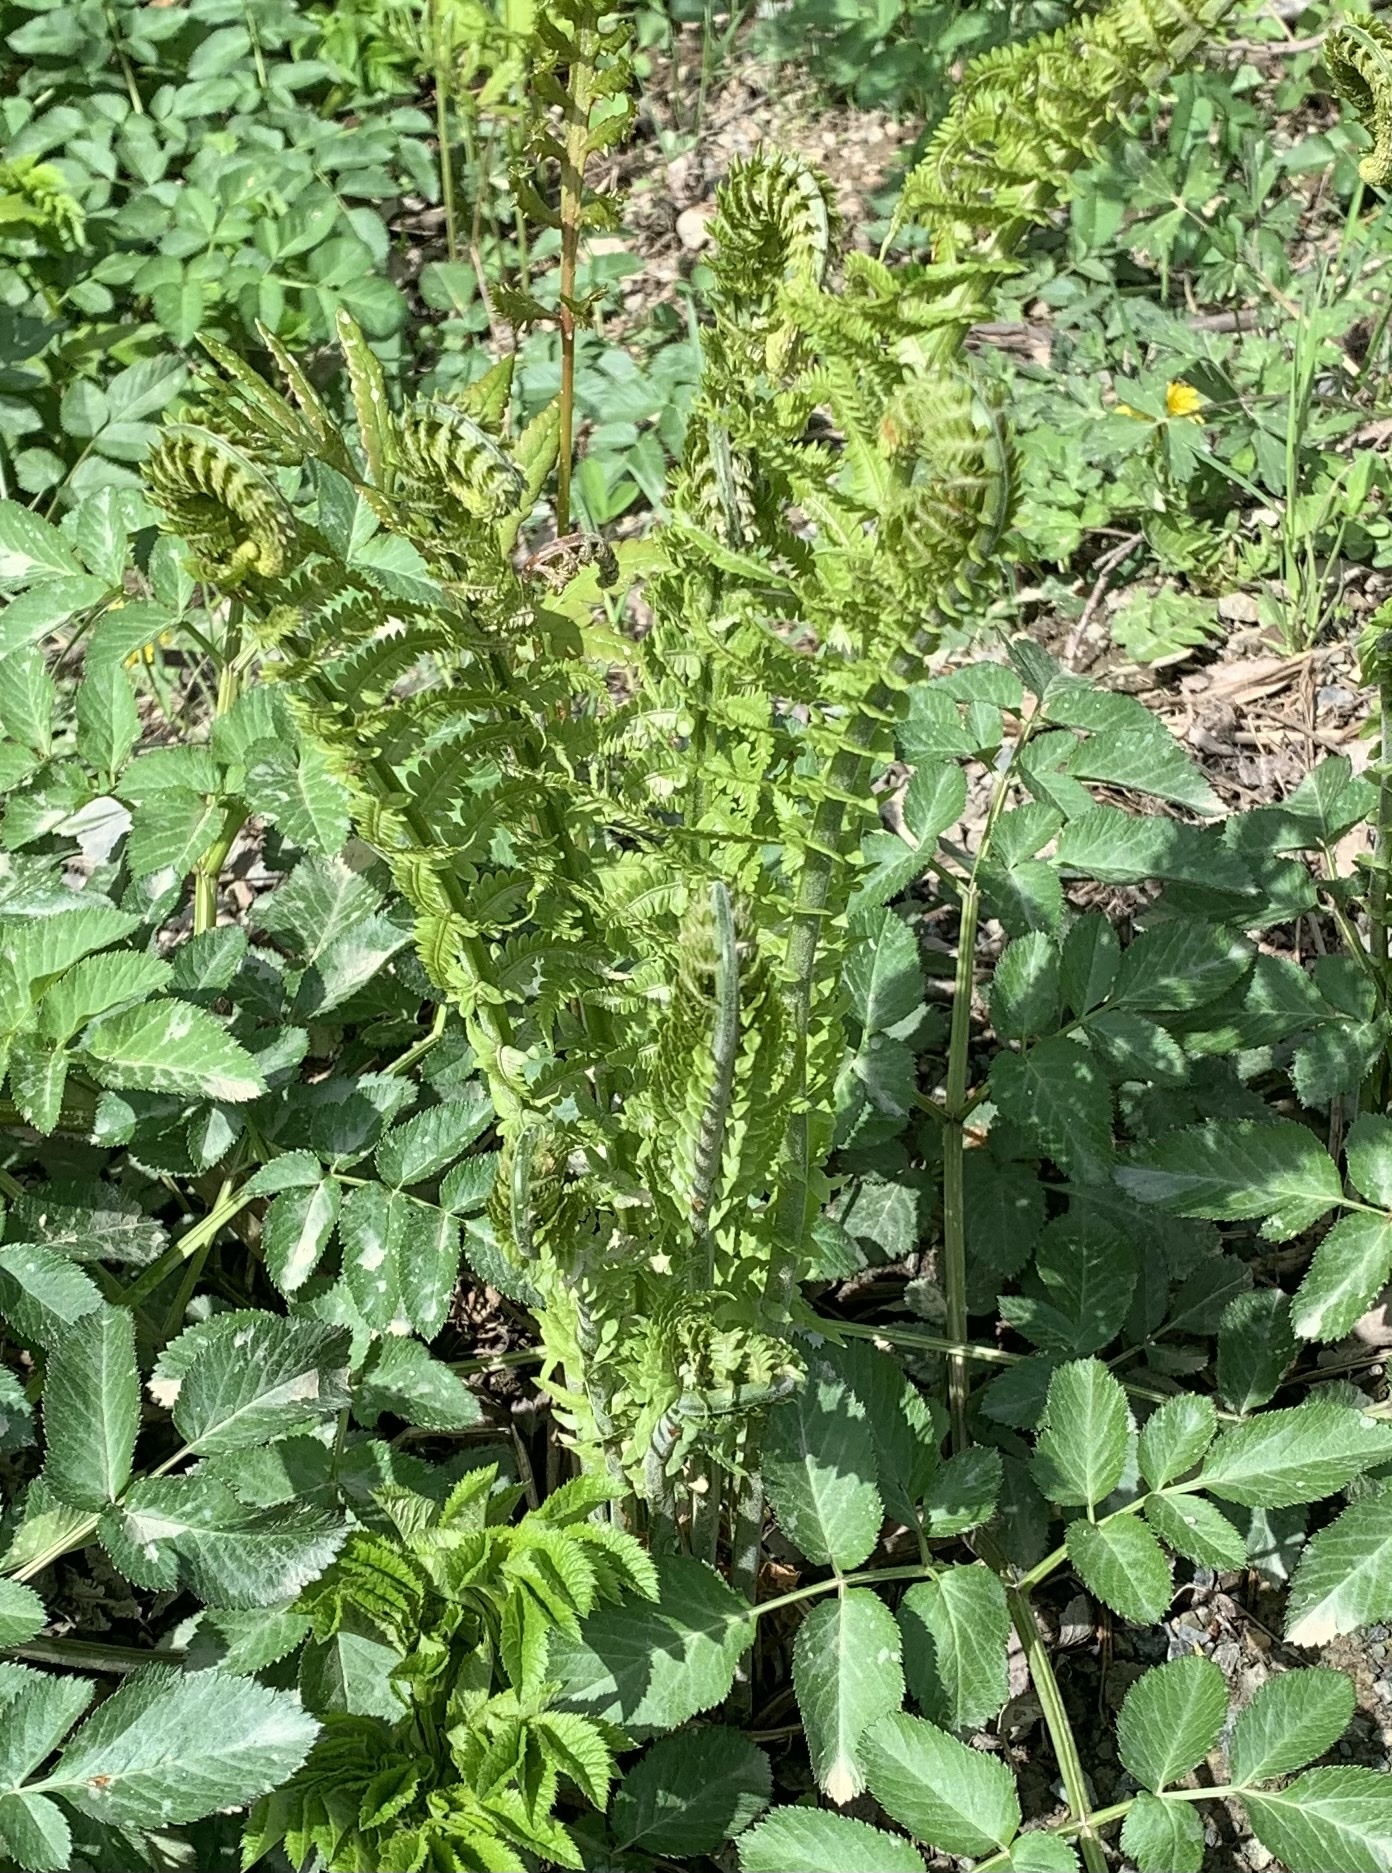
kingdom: Plantae
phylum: Tracheophyta
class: Polypodiopsida
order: Polypodiales
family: Onocleaceae
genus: Matteuccia
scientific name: Matteuccia struthiopteris
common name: Ostrich fern
